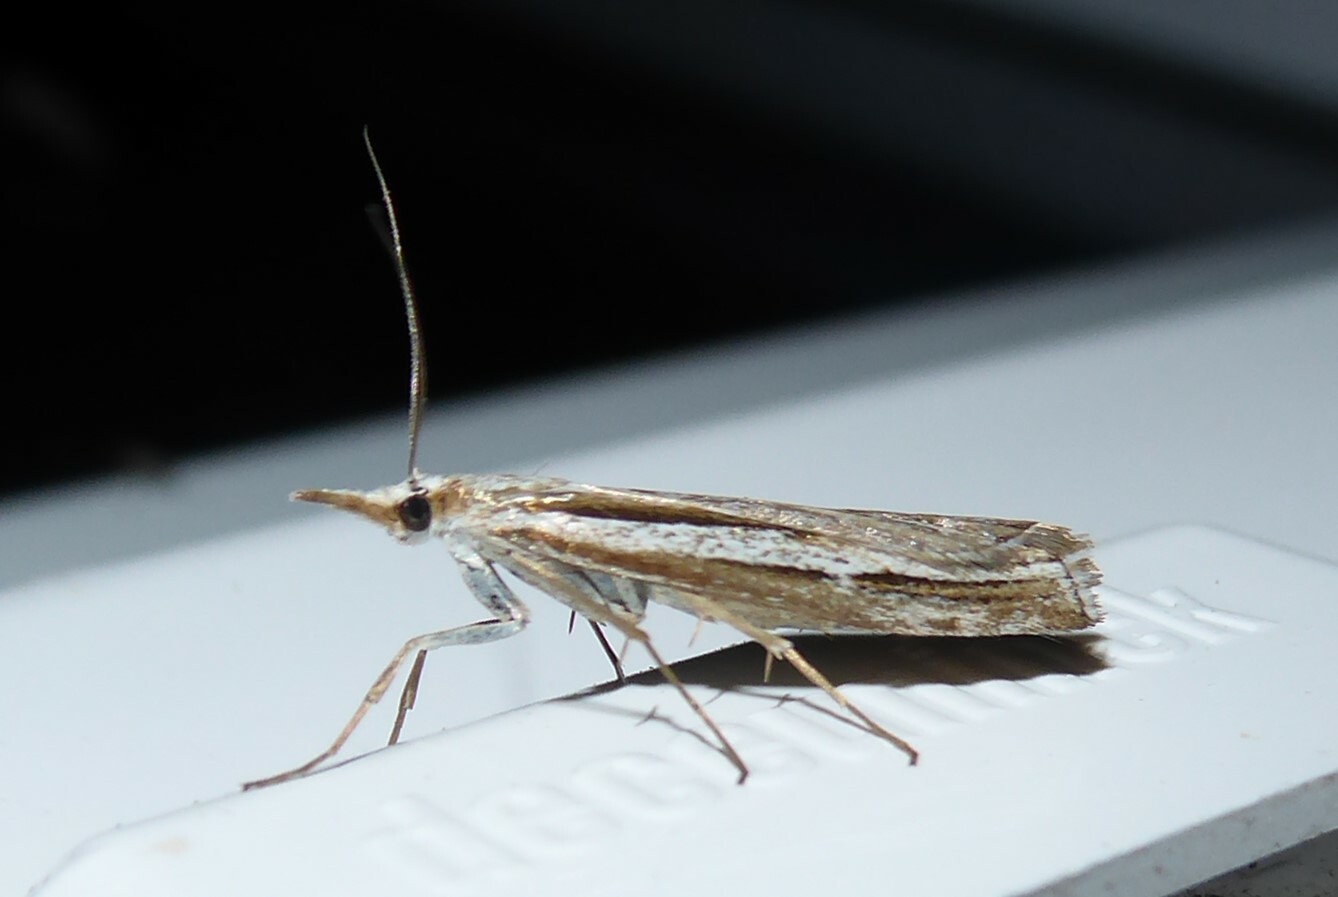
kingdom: Animalia
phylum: Arthropoda
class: Insecta
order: Lepidoptera
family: Crambidae
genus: Orocrambus
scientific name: Orocrambus vittellus
